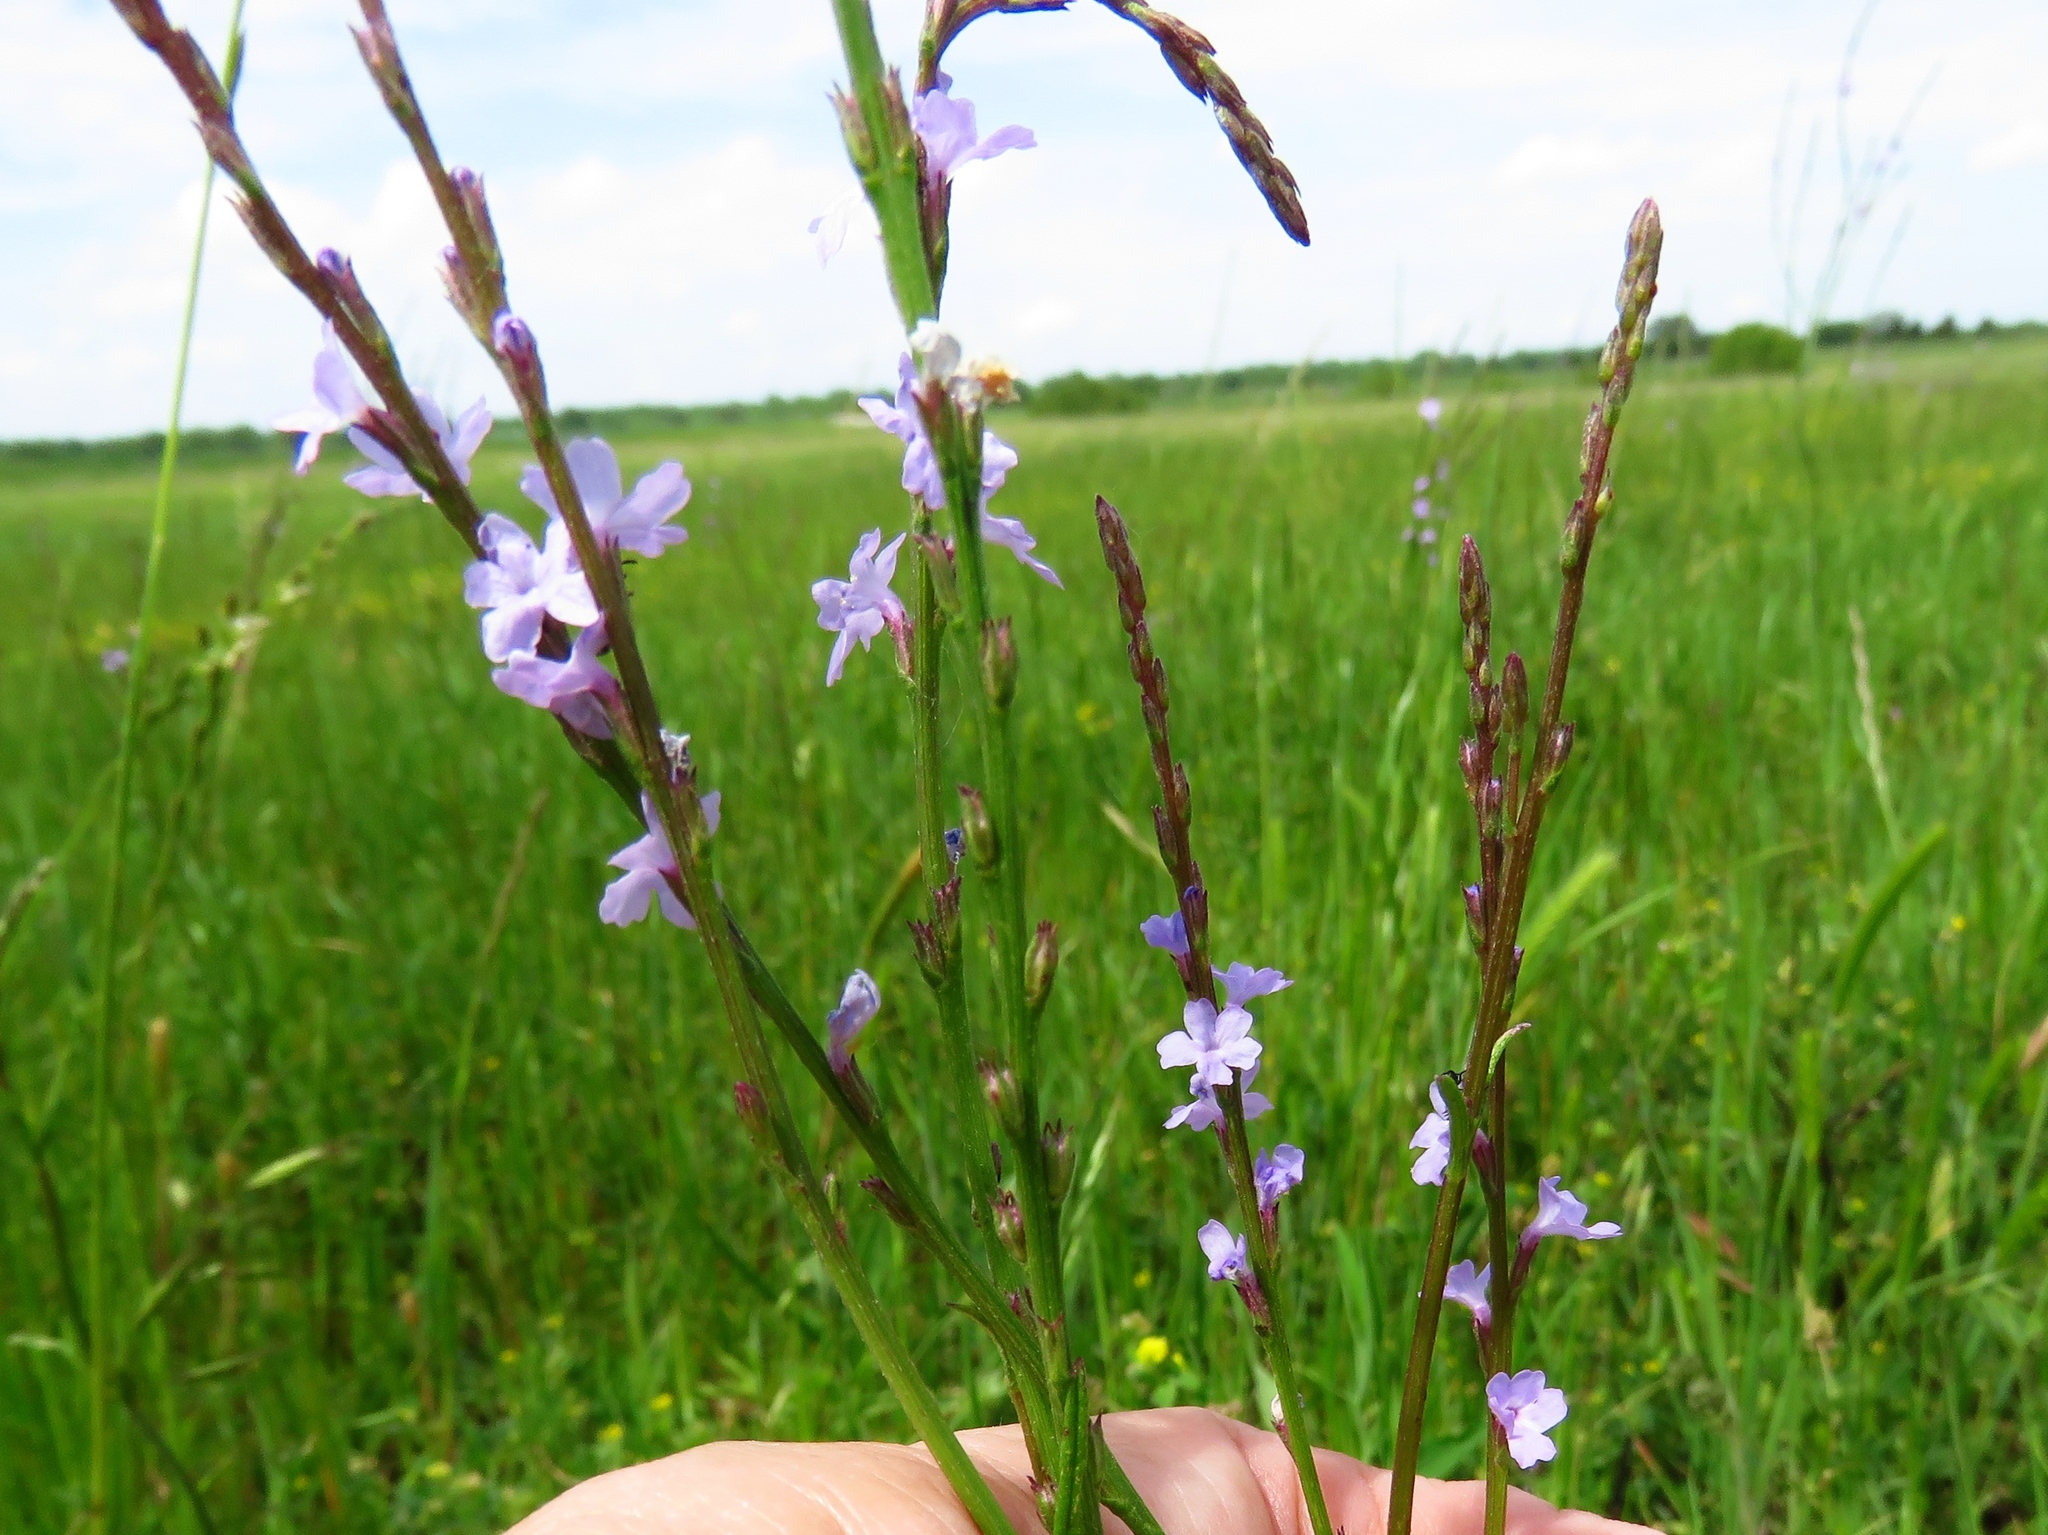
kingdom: Plantae
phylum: Tracheophyta
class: Magnoliopsida
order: Lamiales
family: Verbenaceae
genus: Verbena
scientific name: Verbena halei
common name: Texas vervain
